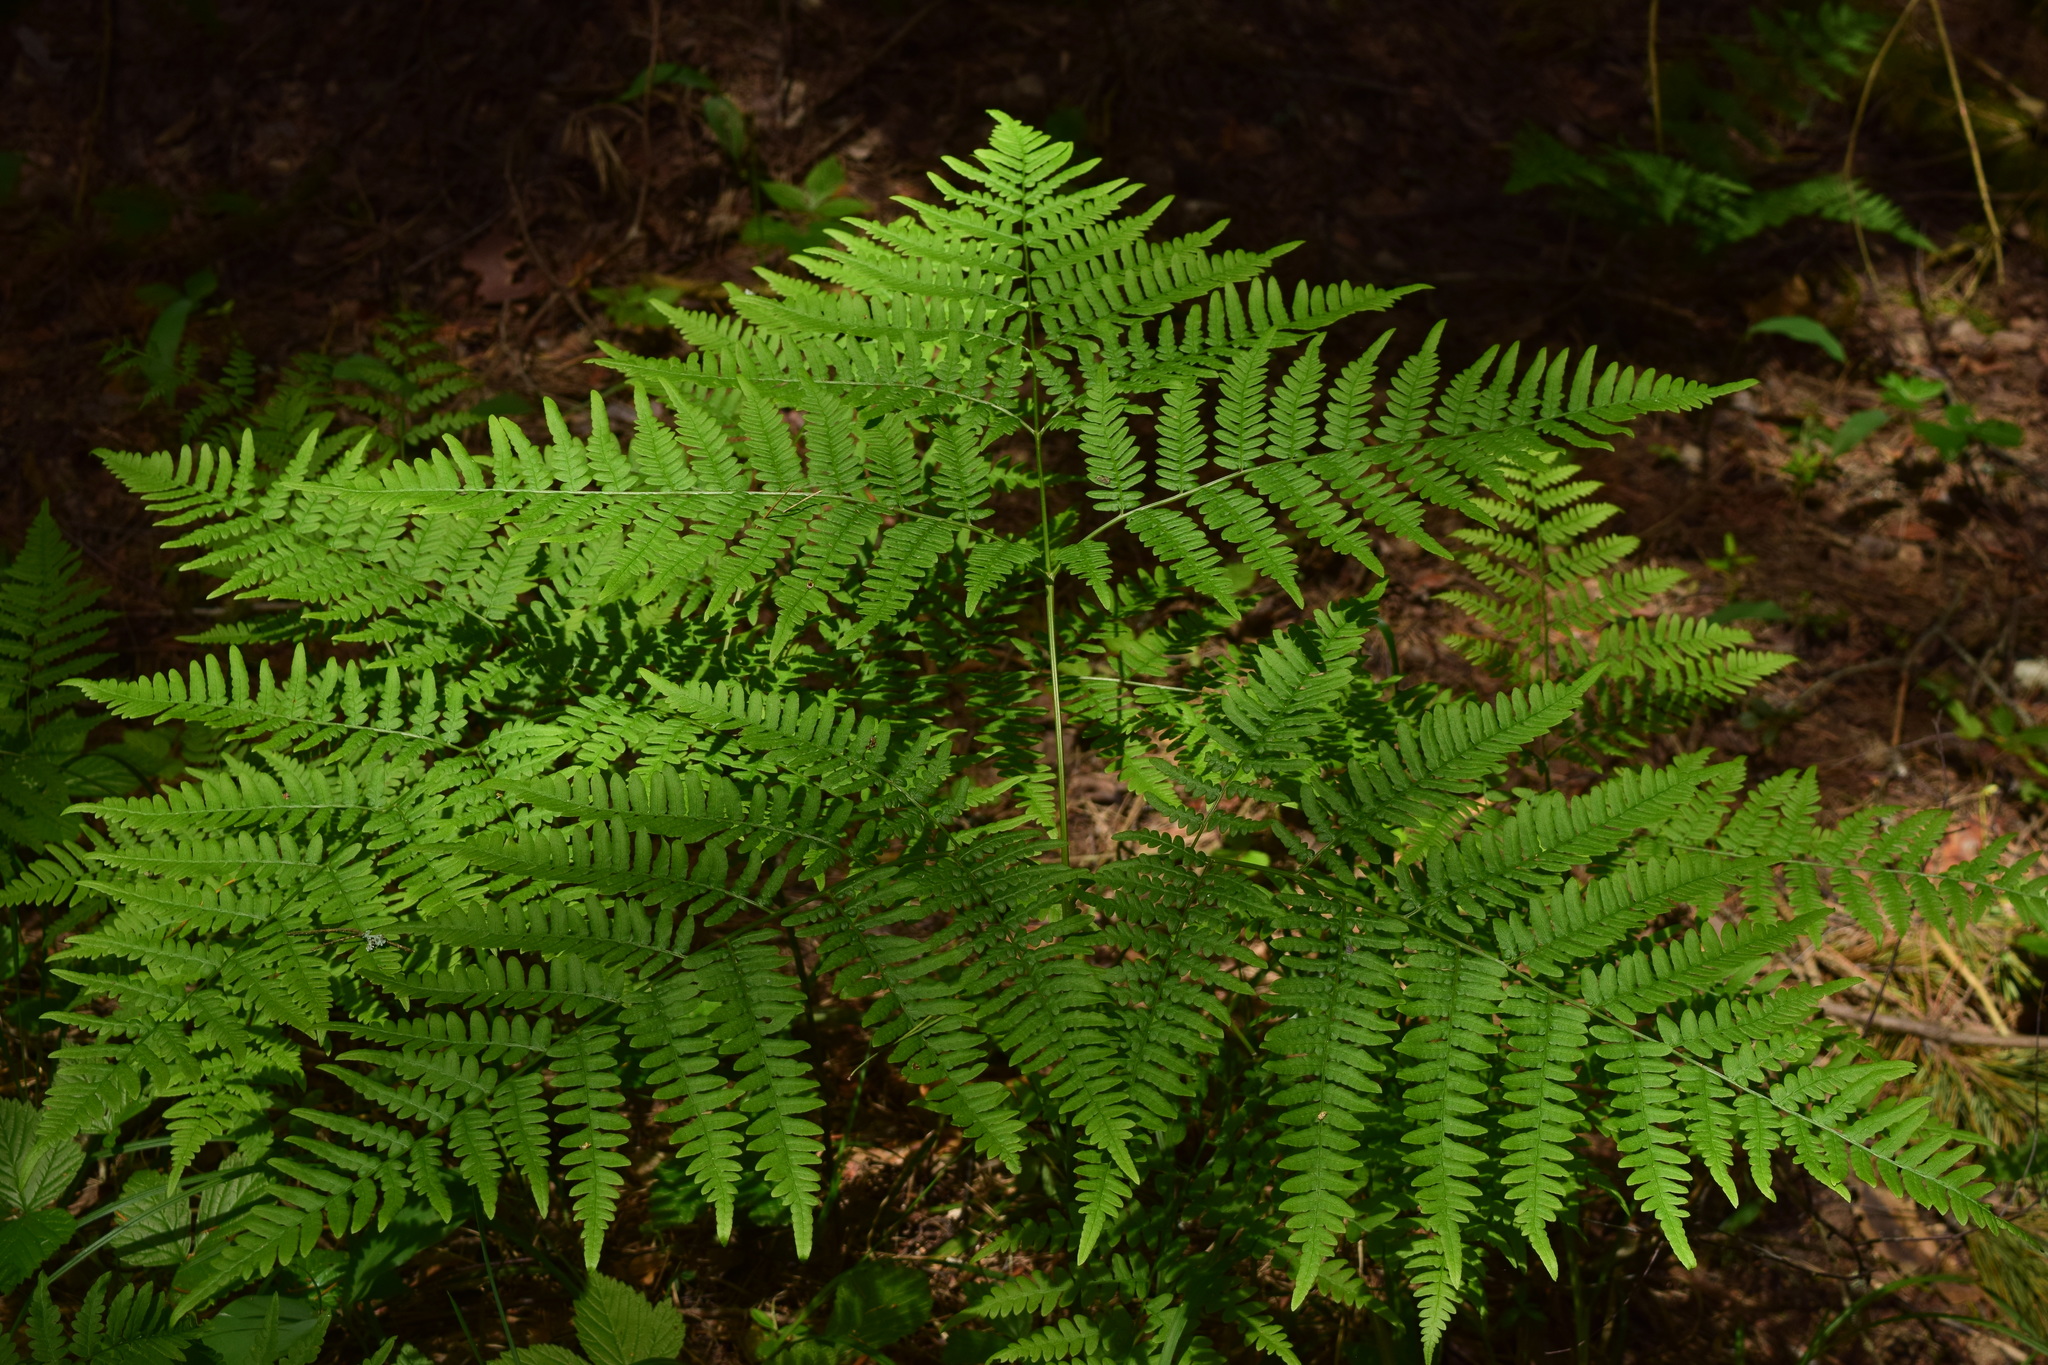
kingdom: Plantae
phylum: Tracheophyta
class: Polypodiopsida
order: Polypodiales
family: Dennstaedtiaceae
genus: Pteridium
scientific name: Pteridium aquilinum
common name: Bracken
